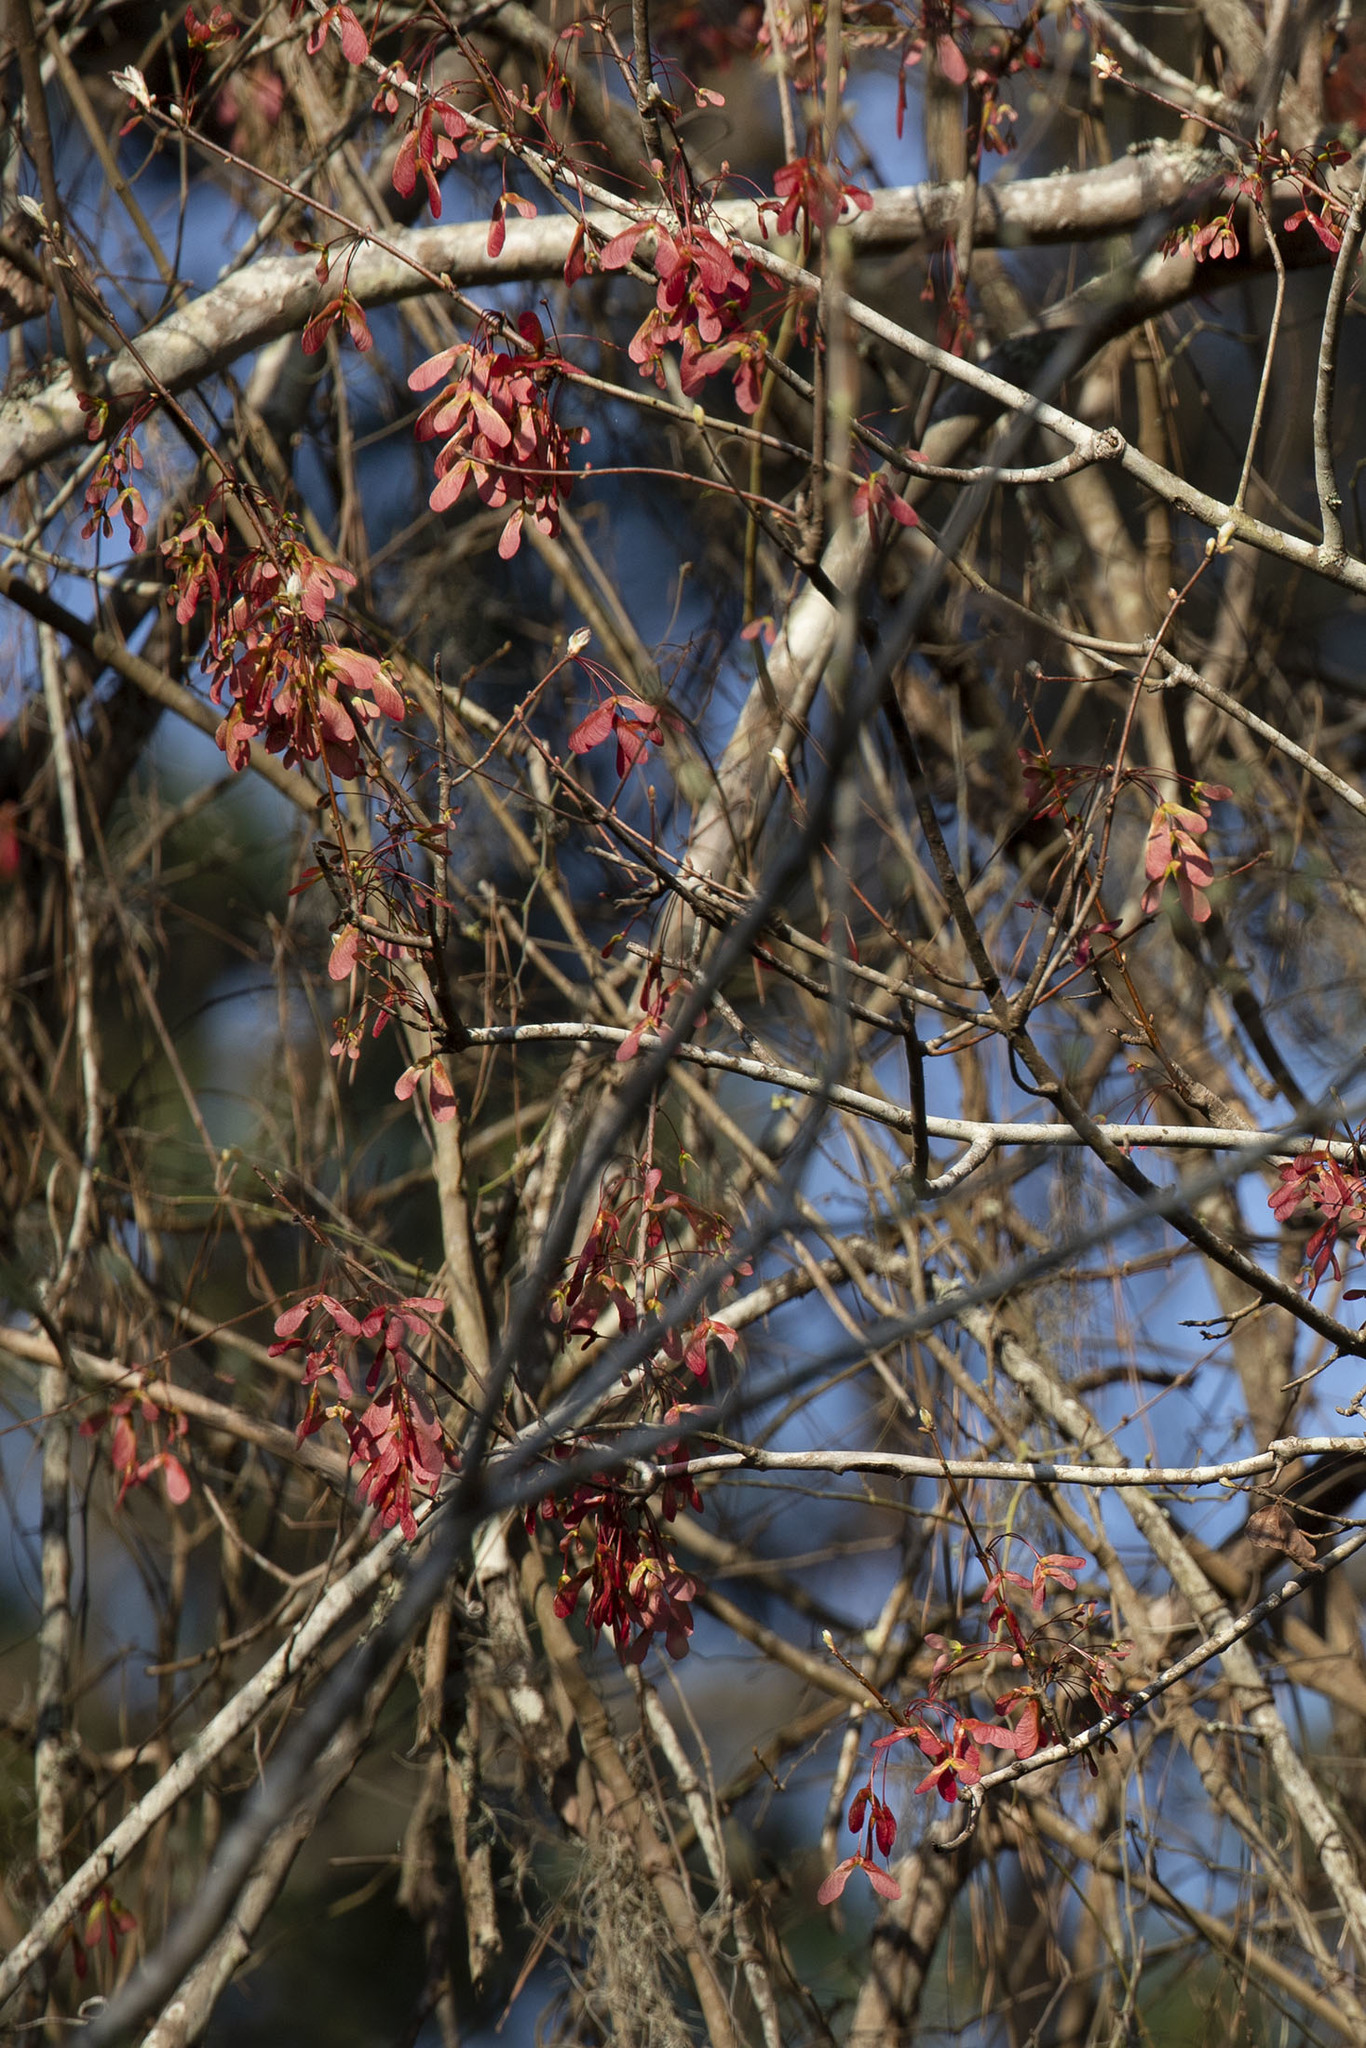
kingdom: Plantae
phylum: Tracheophyta
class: Magnoliopsida
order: Sapindales
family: Sapindaceae
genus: Acer
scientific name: Acer rubrum
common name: Red maple
